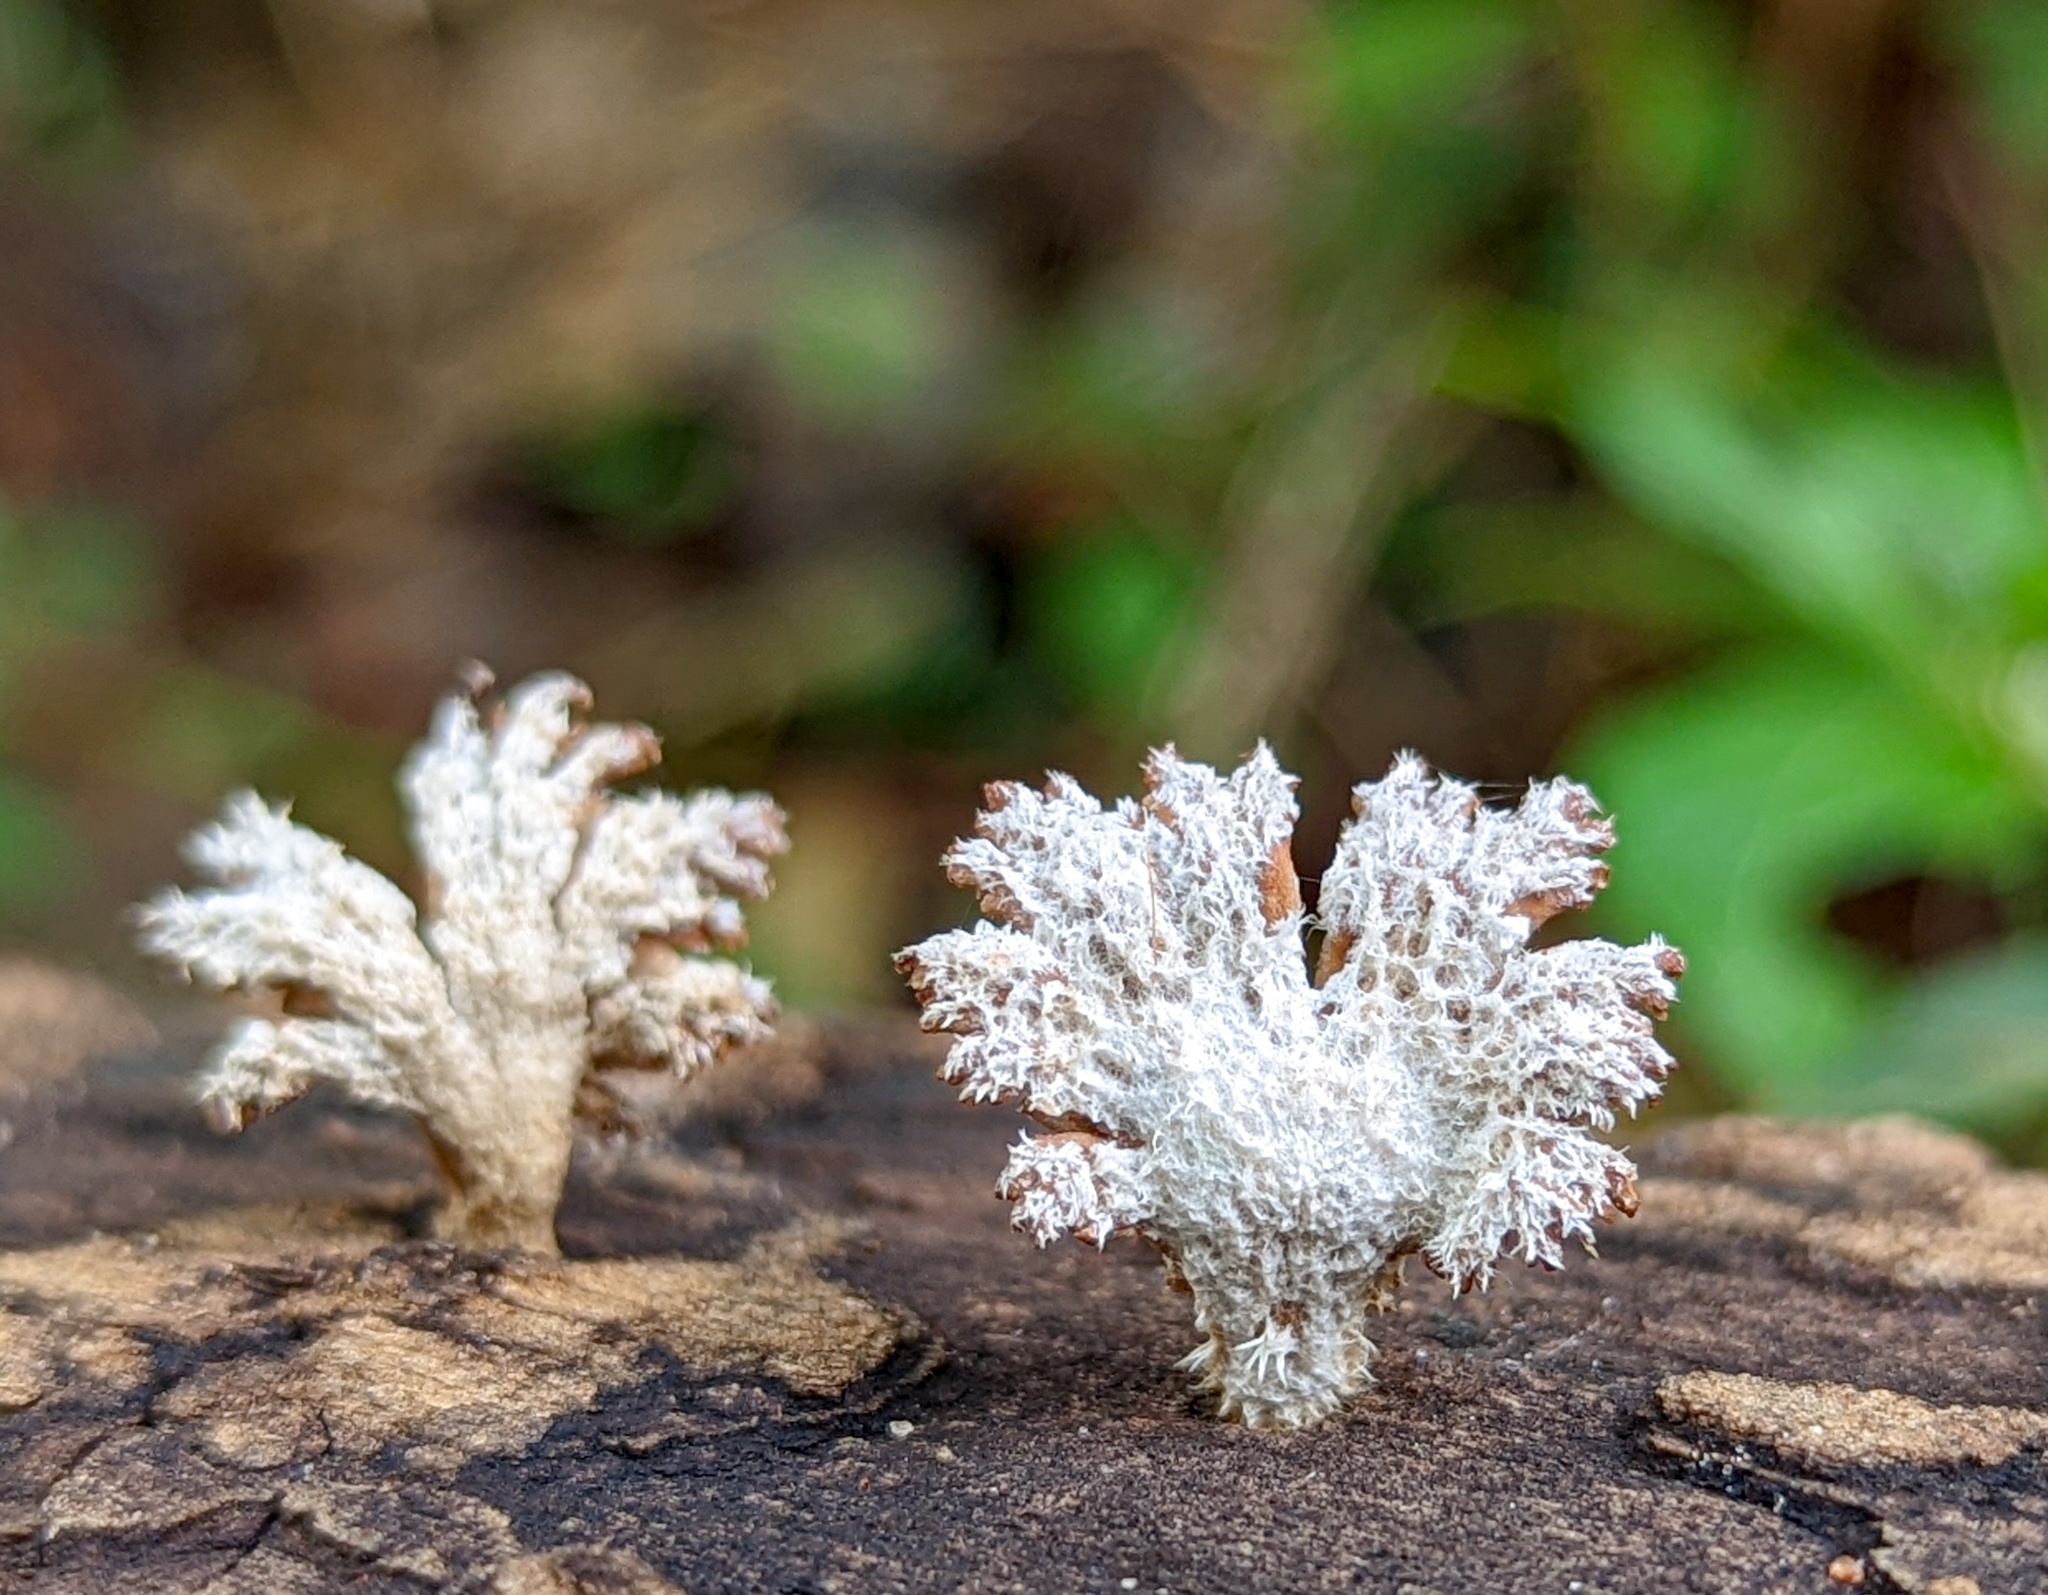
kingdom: Fungi
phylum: Basidiomycota
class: Agaricomycetes
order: Agaricales
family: Schizophyllaceae
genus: Schizophyllum
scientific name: Schizophyllum commune
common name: Common porecrust
